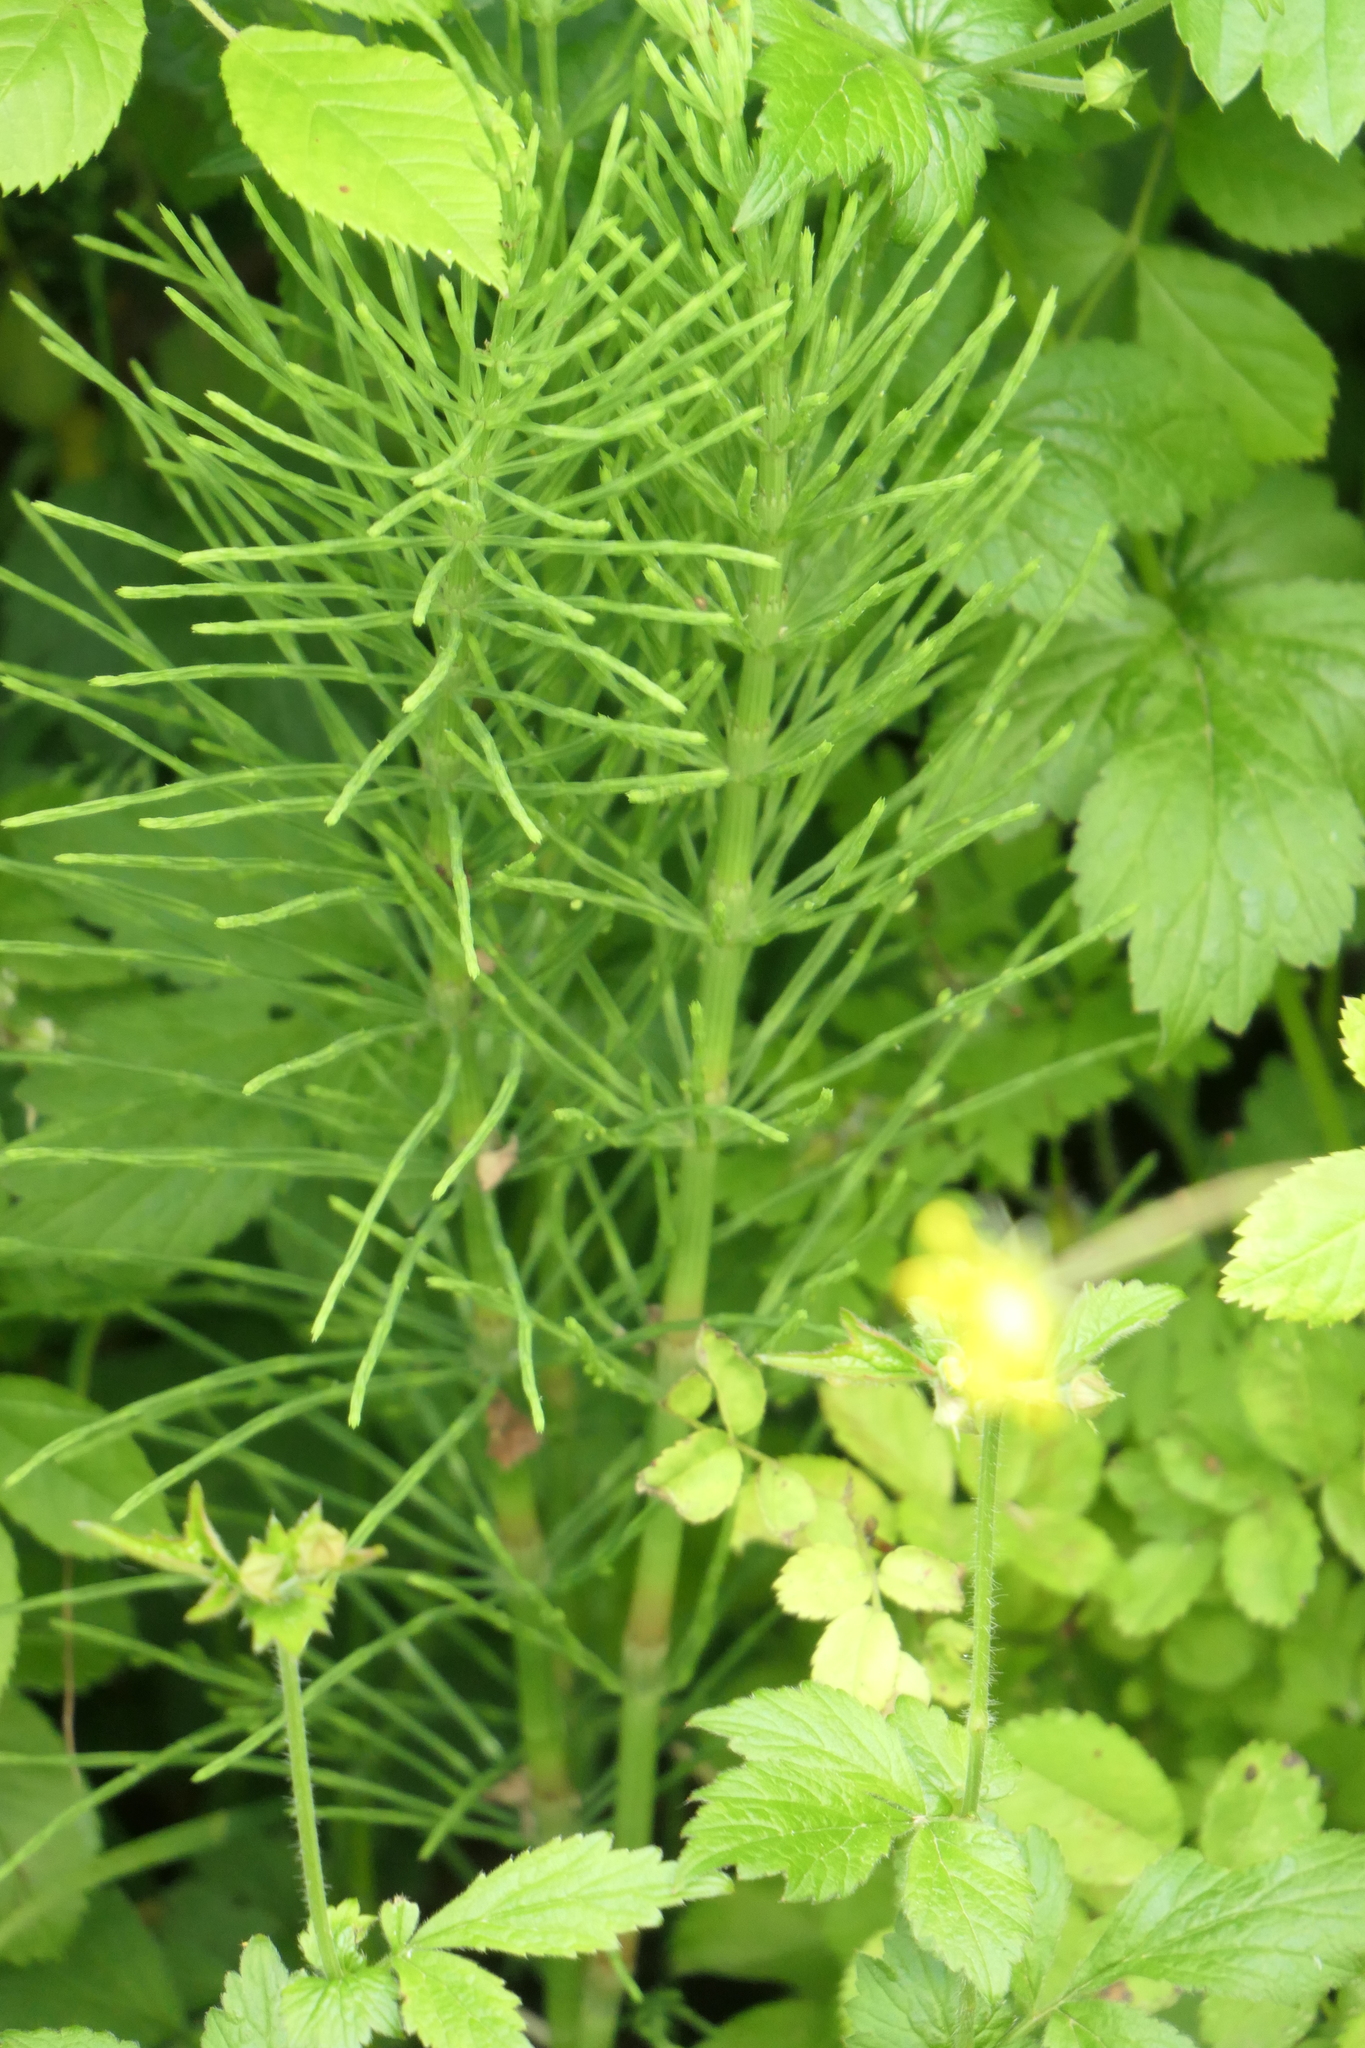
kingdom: Plantae
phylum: Tracheophyta
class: Polypodiopsida
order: Equisetales
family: Equisetaceae
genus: Equisetum
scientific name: Equisetum arvense
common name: Field horsetail
